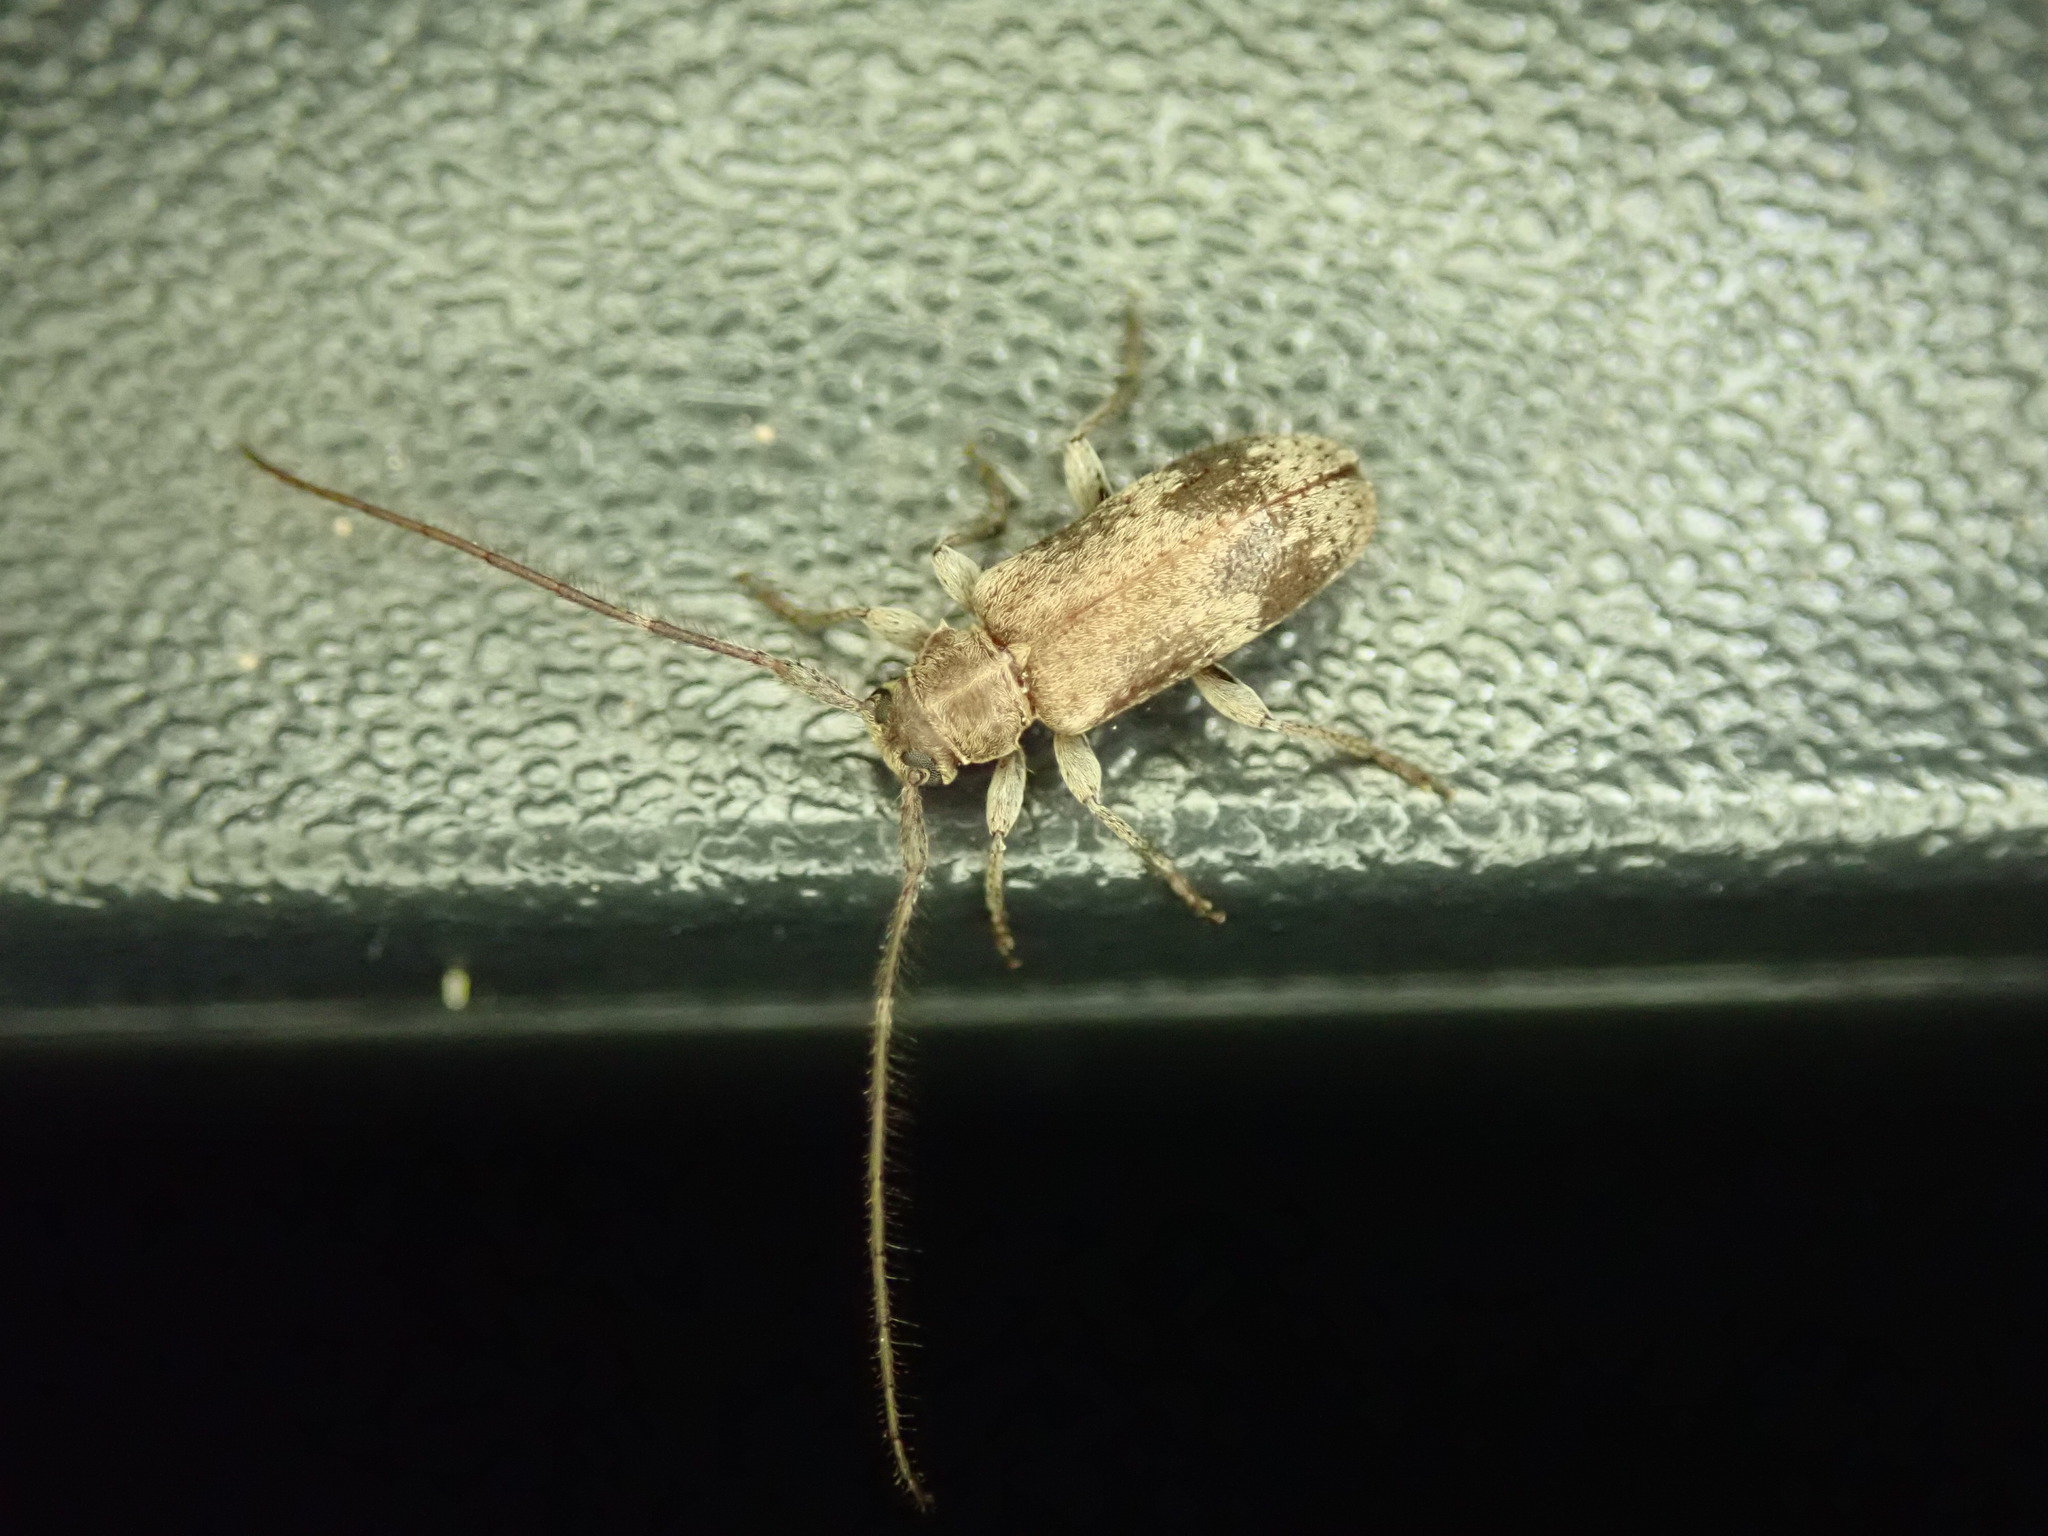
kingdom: Animalia
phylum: Arthropoda
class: Insecta
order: Coleoptera
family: Cerambycidae
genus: Exocentrus
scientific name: Exocentrus adspersus
